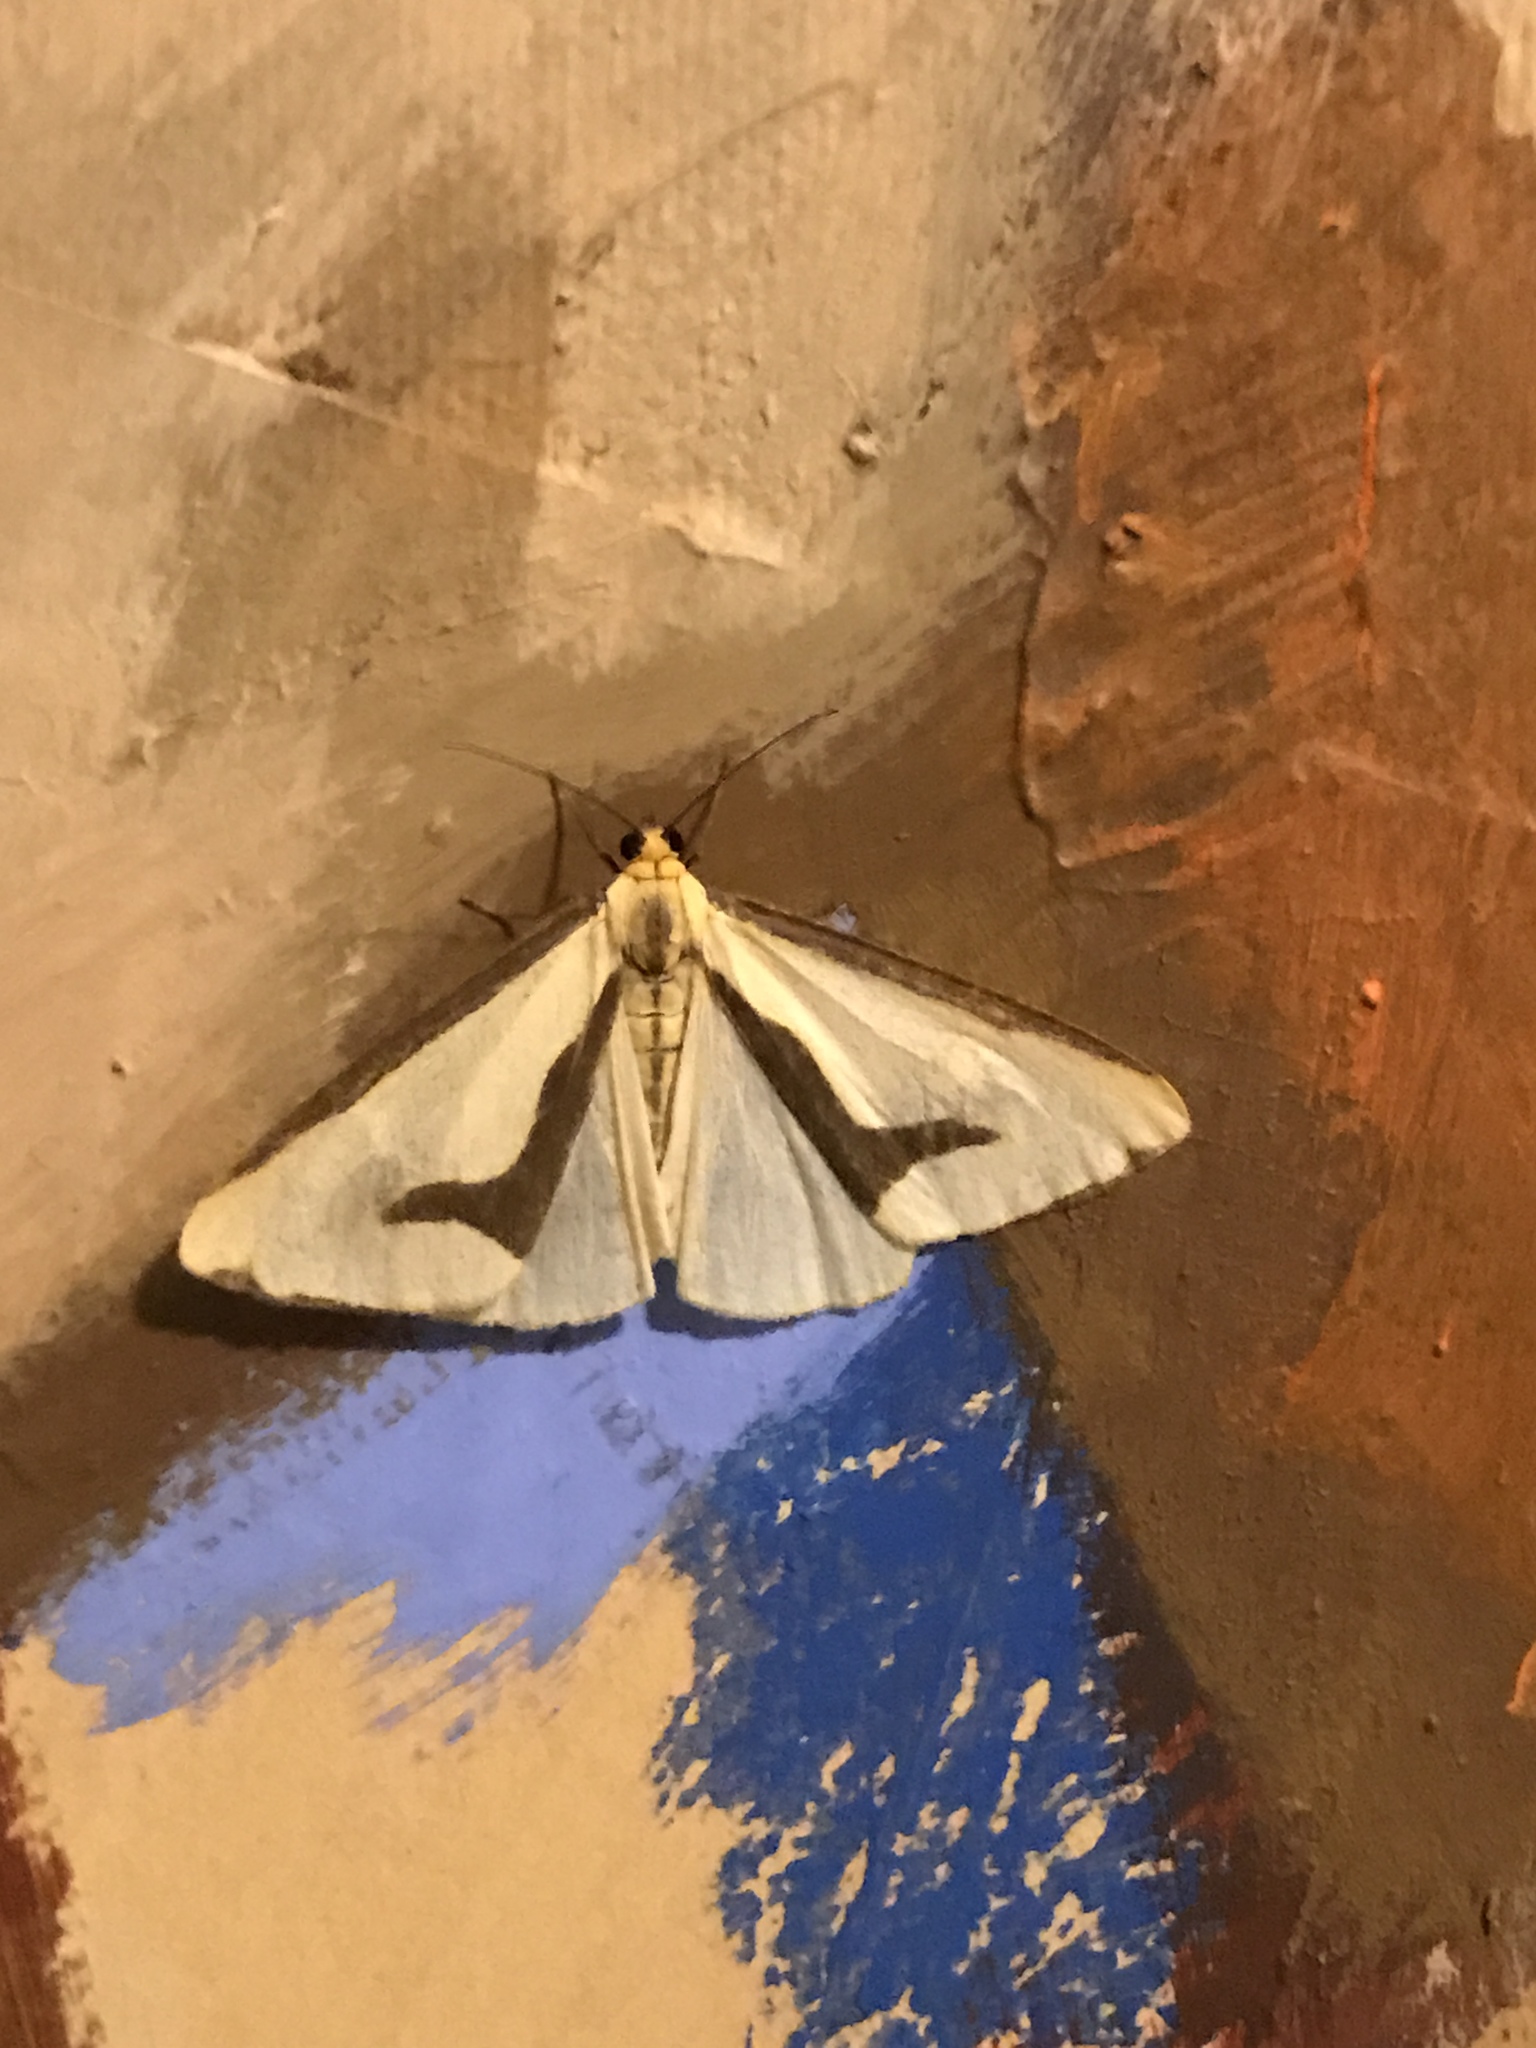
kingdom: Animalia
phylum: Arthropoda
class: Insecta
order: Lepidoptera
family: Erebidae
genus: Haploa
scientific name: Haploa lecontei
